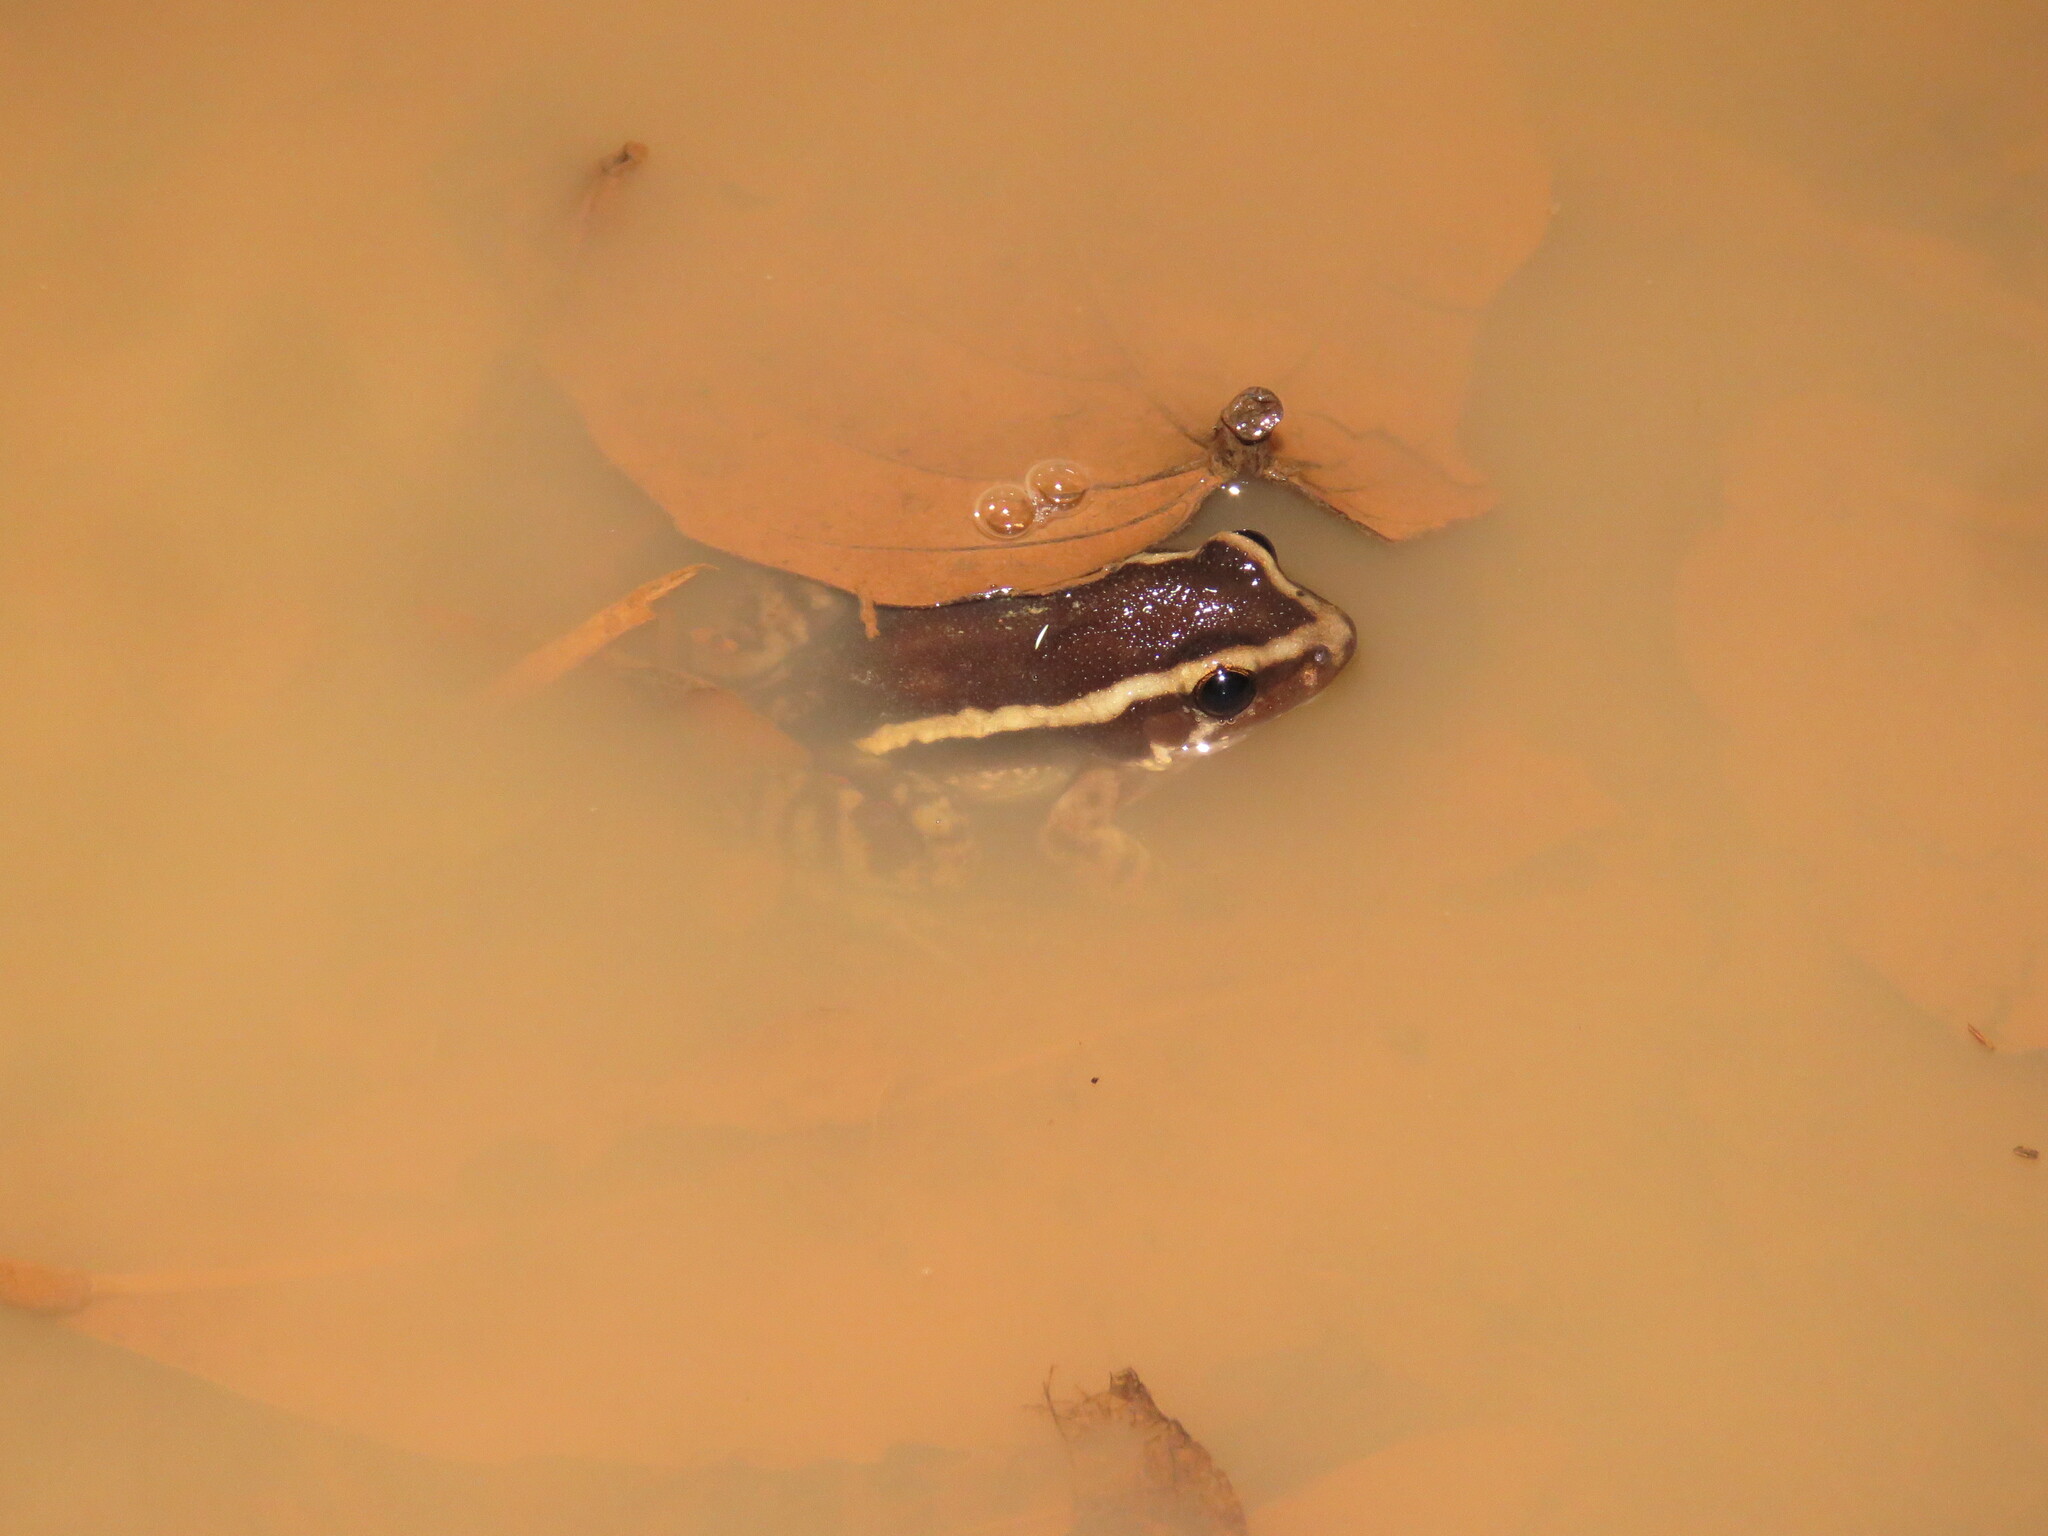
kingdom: Animalia
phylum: Chordata
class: Amphibia
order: Anura
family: Leptodactylidae
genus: Lithodytes
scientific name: Lithodytes lineatus
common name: Gold-striped frog
